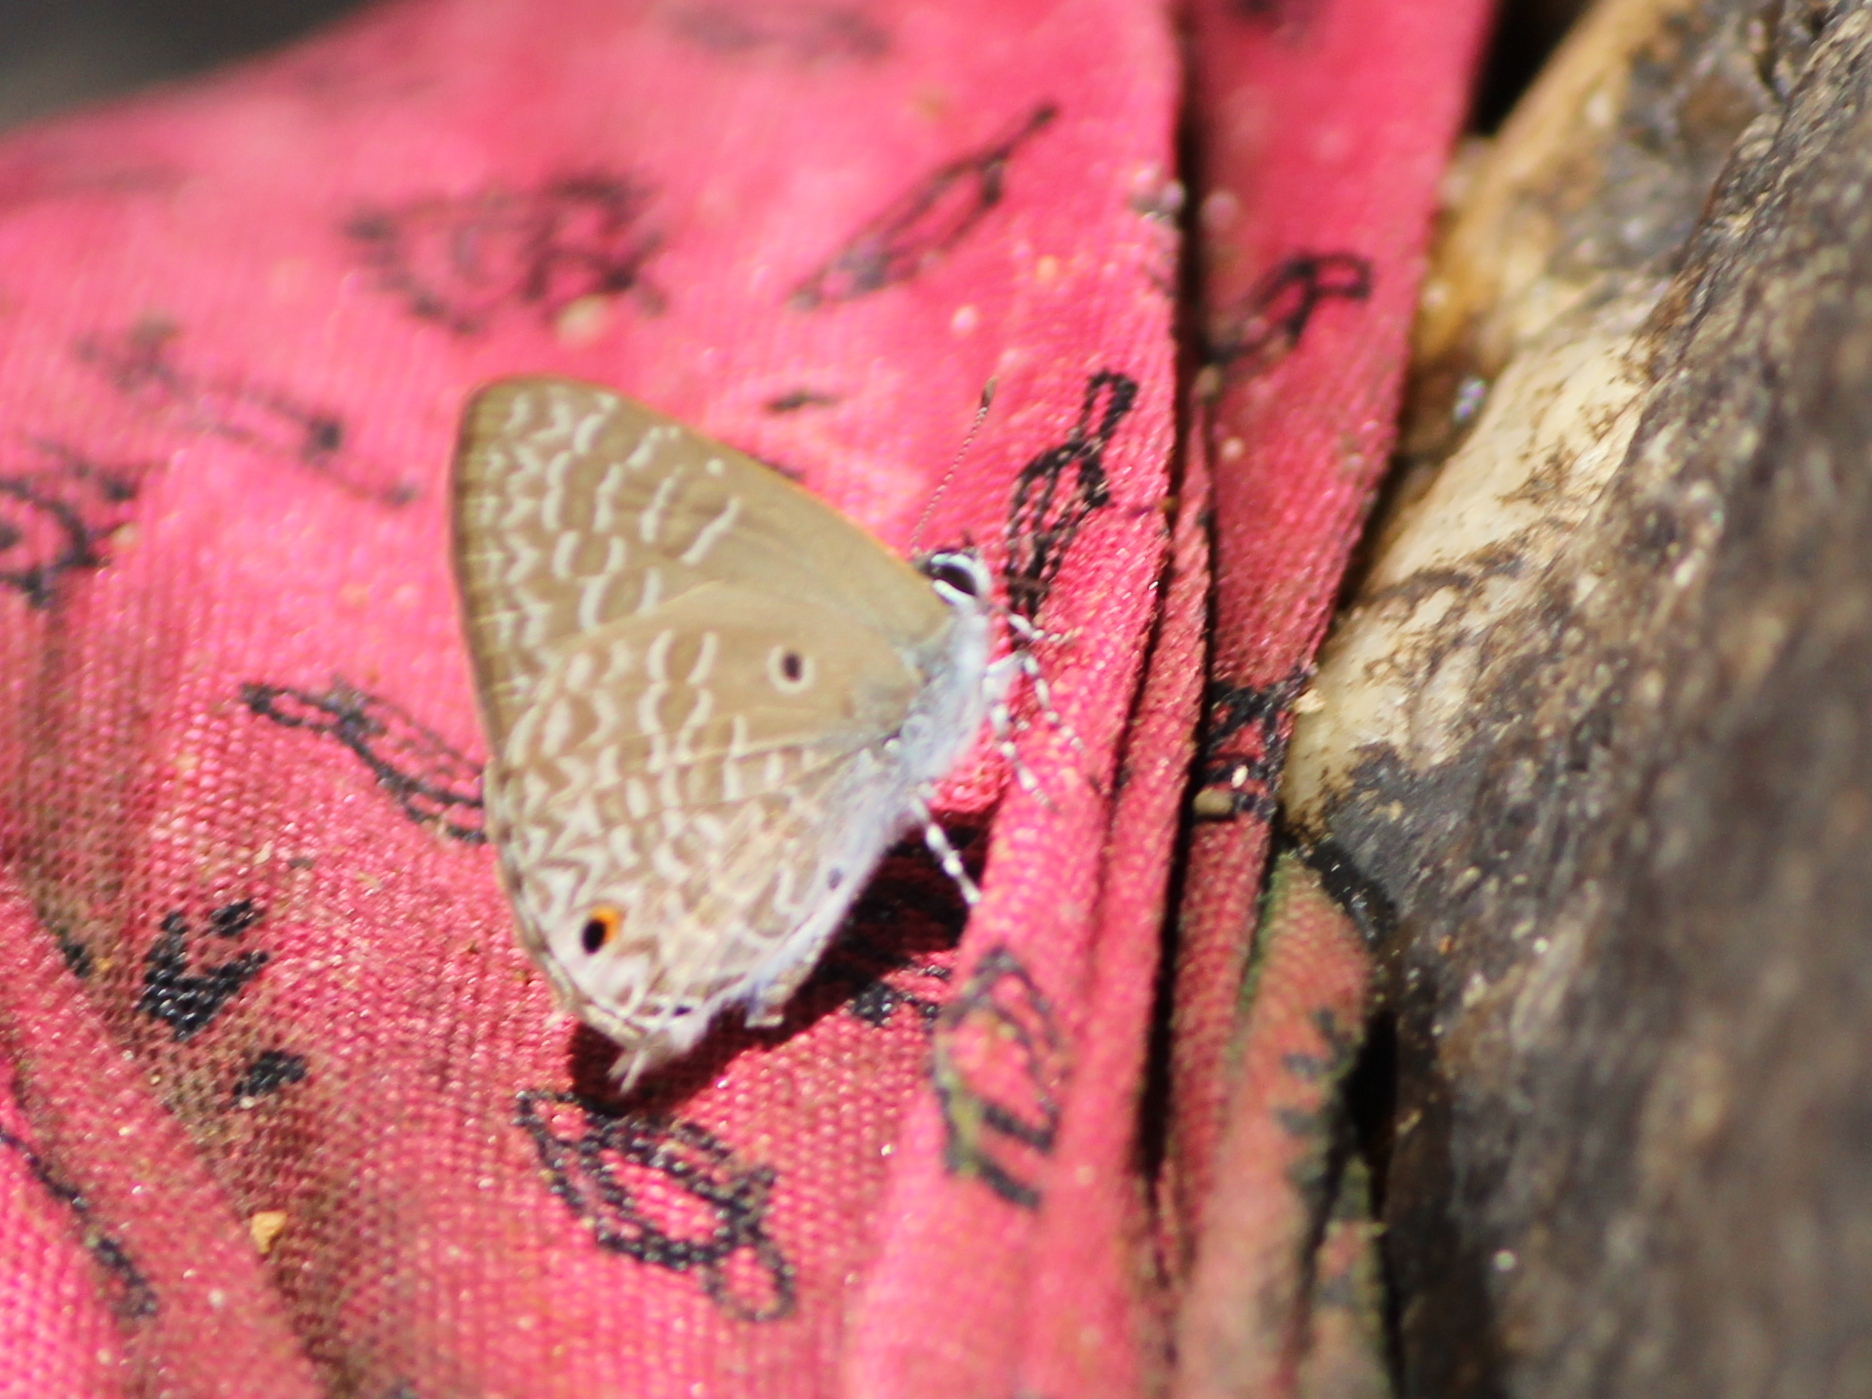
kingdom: Animalia
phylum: Arthropoda
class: Insecta
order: Lepidoptera
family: Lycaenidae
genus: Anthene
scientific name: Anthene lycaenina
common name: Pointed ciliate blue
